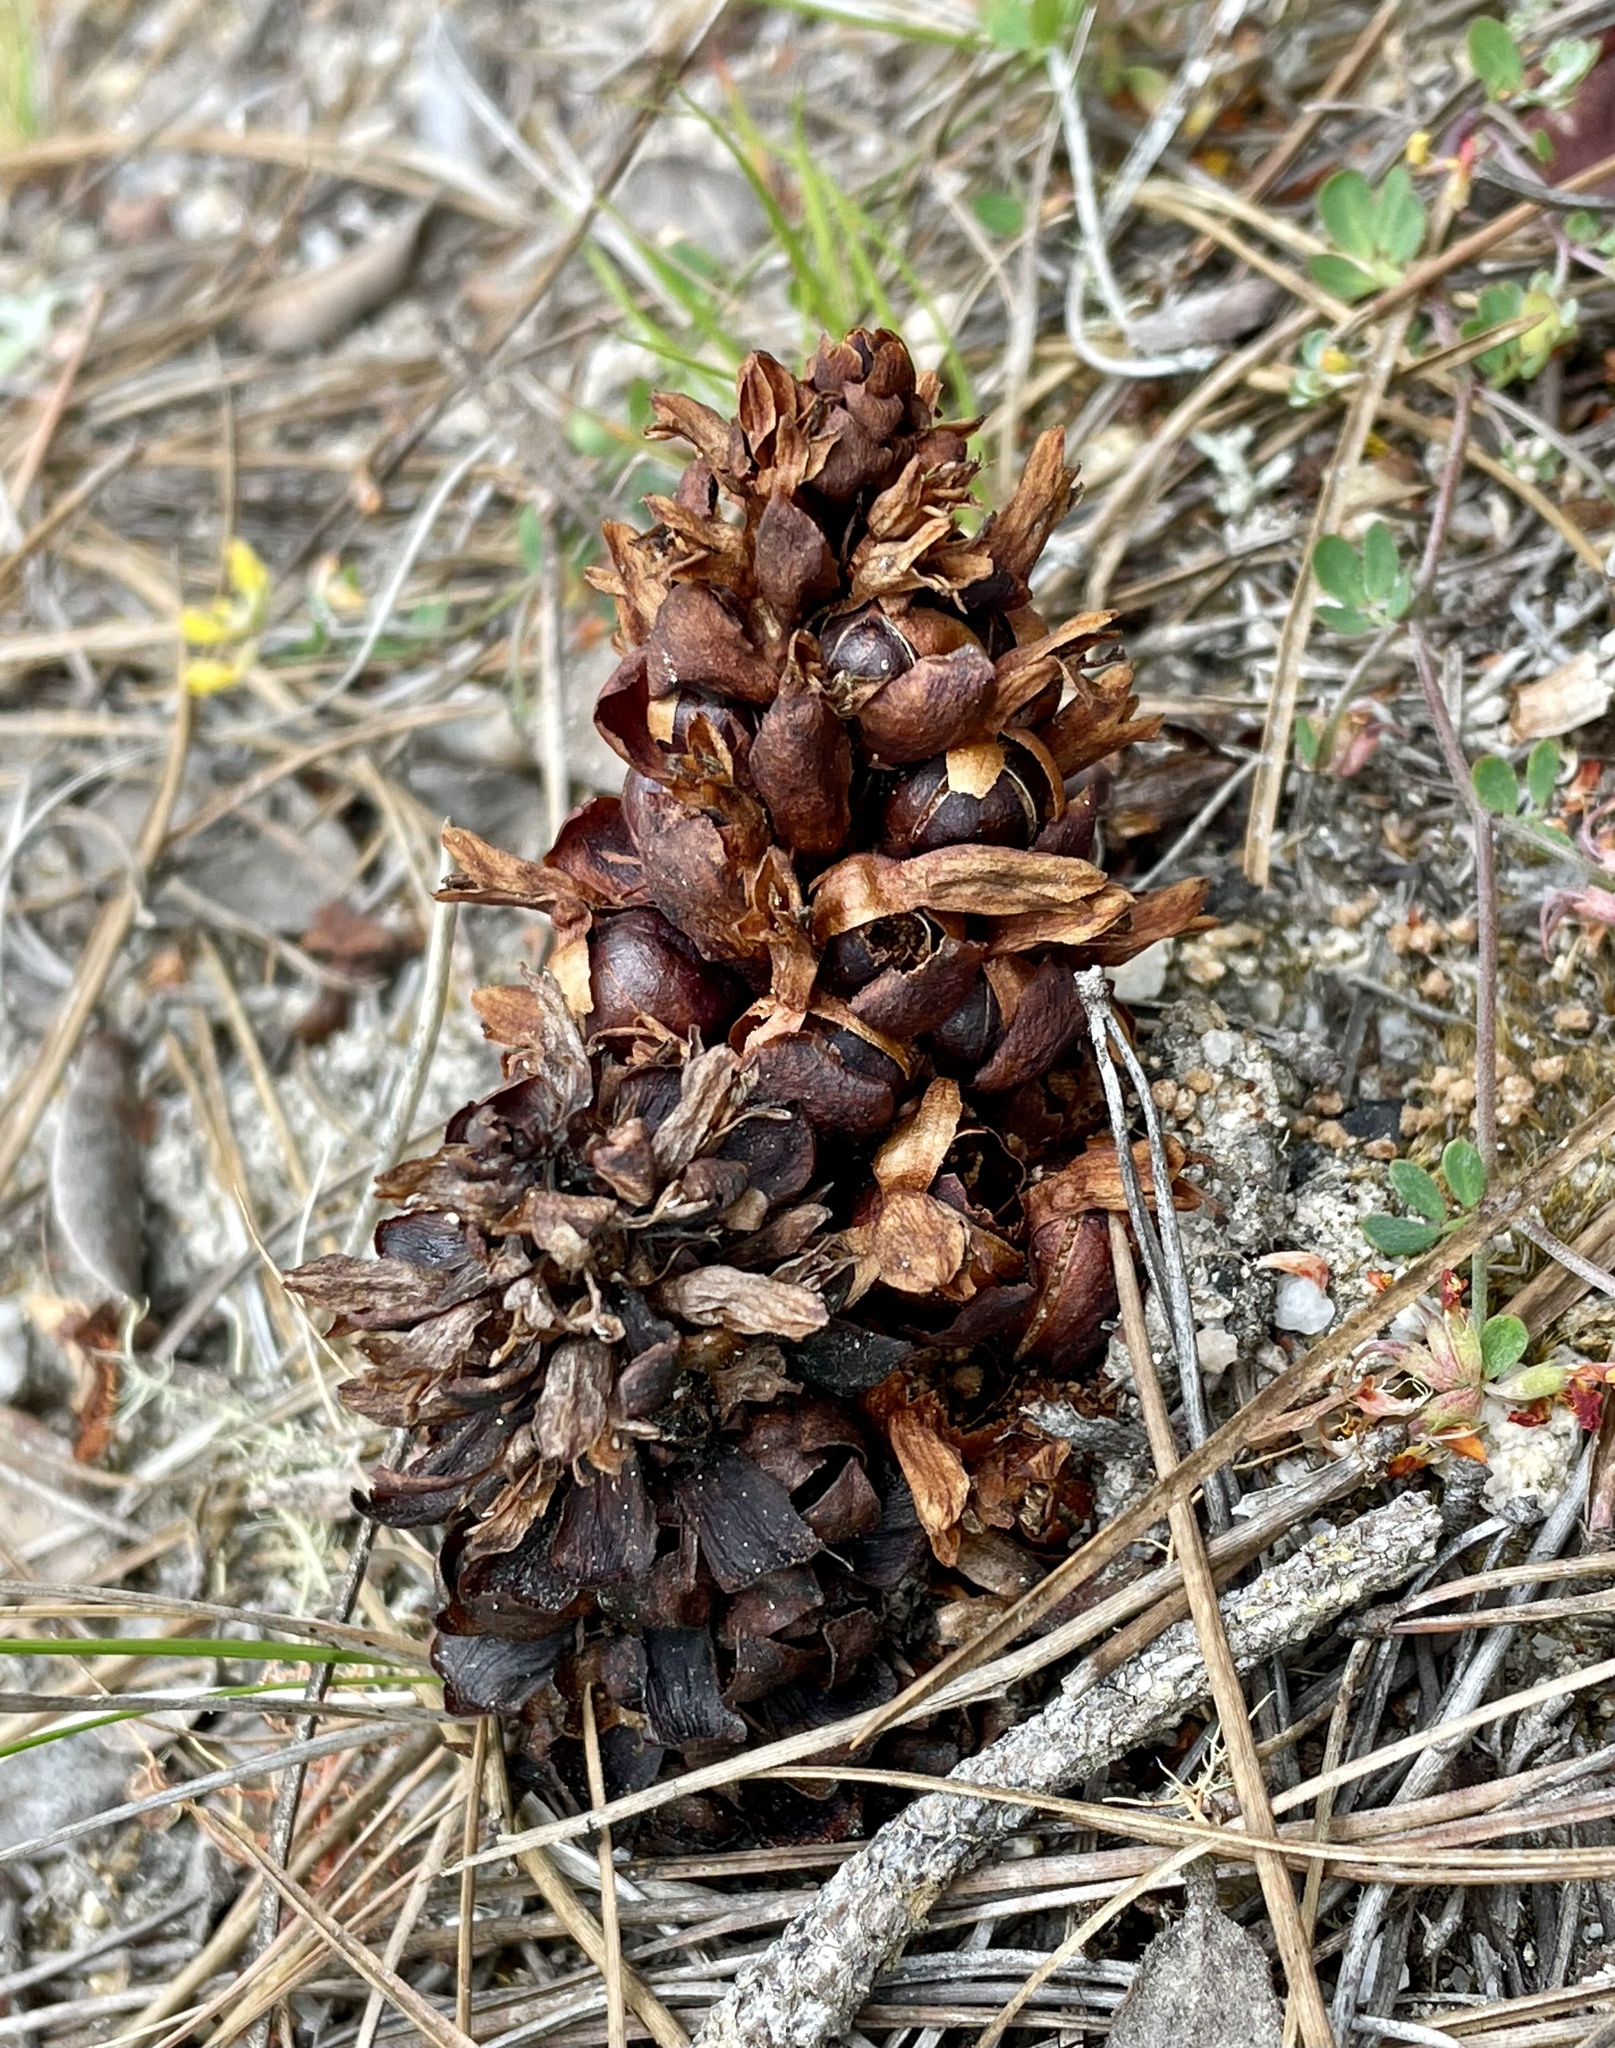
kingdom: Plantae
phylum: Tracheophyta
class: Magnoliopsida
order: Lamiales
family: Orobanchaceae
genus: Kopsiopsis
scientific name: Kopsiopsis strobilacea
